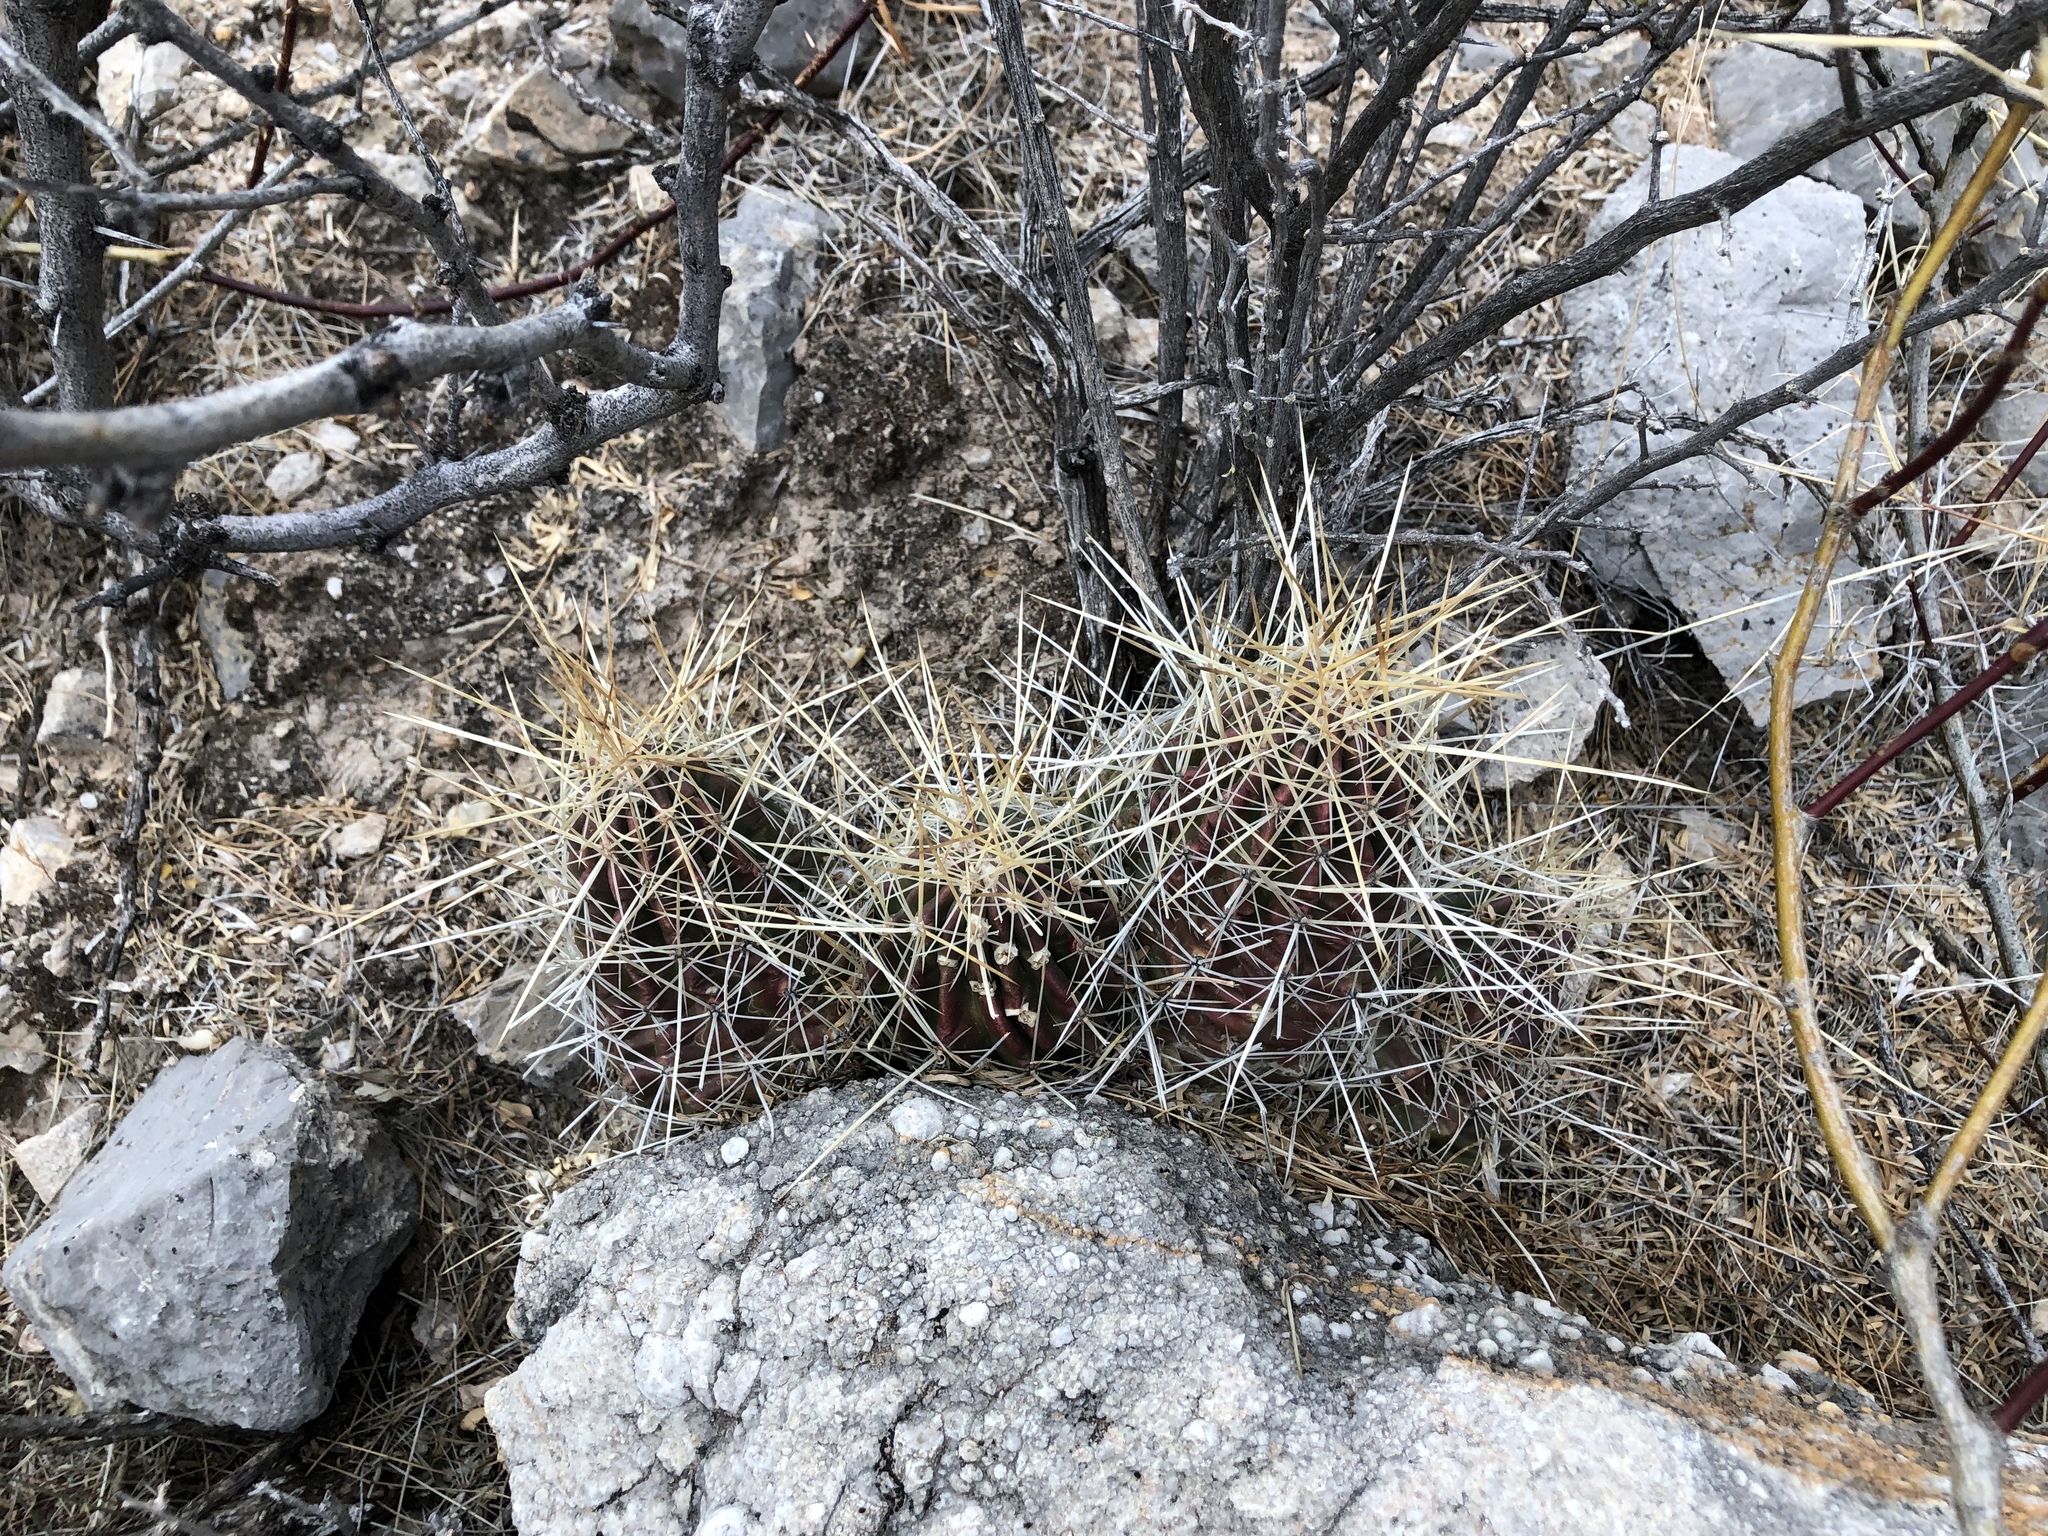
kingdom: Plantae
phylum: Tracheophyta
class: Magnoliopsida
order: Caryophyllales
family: Cactaceae
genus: Echinocereus
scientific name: Echinocereus stramineus
